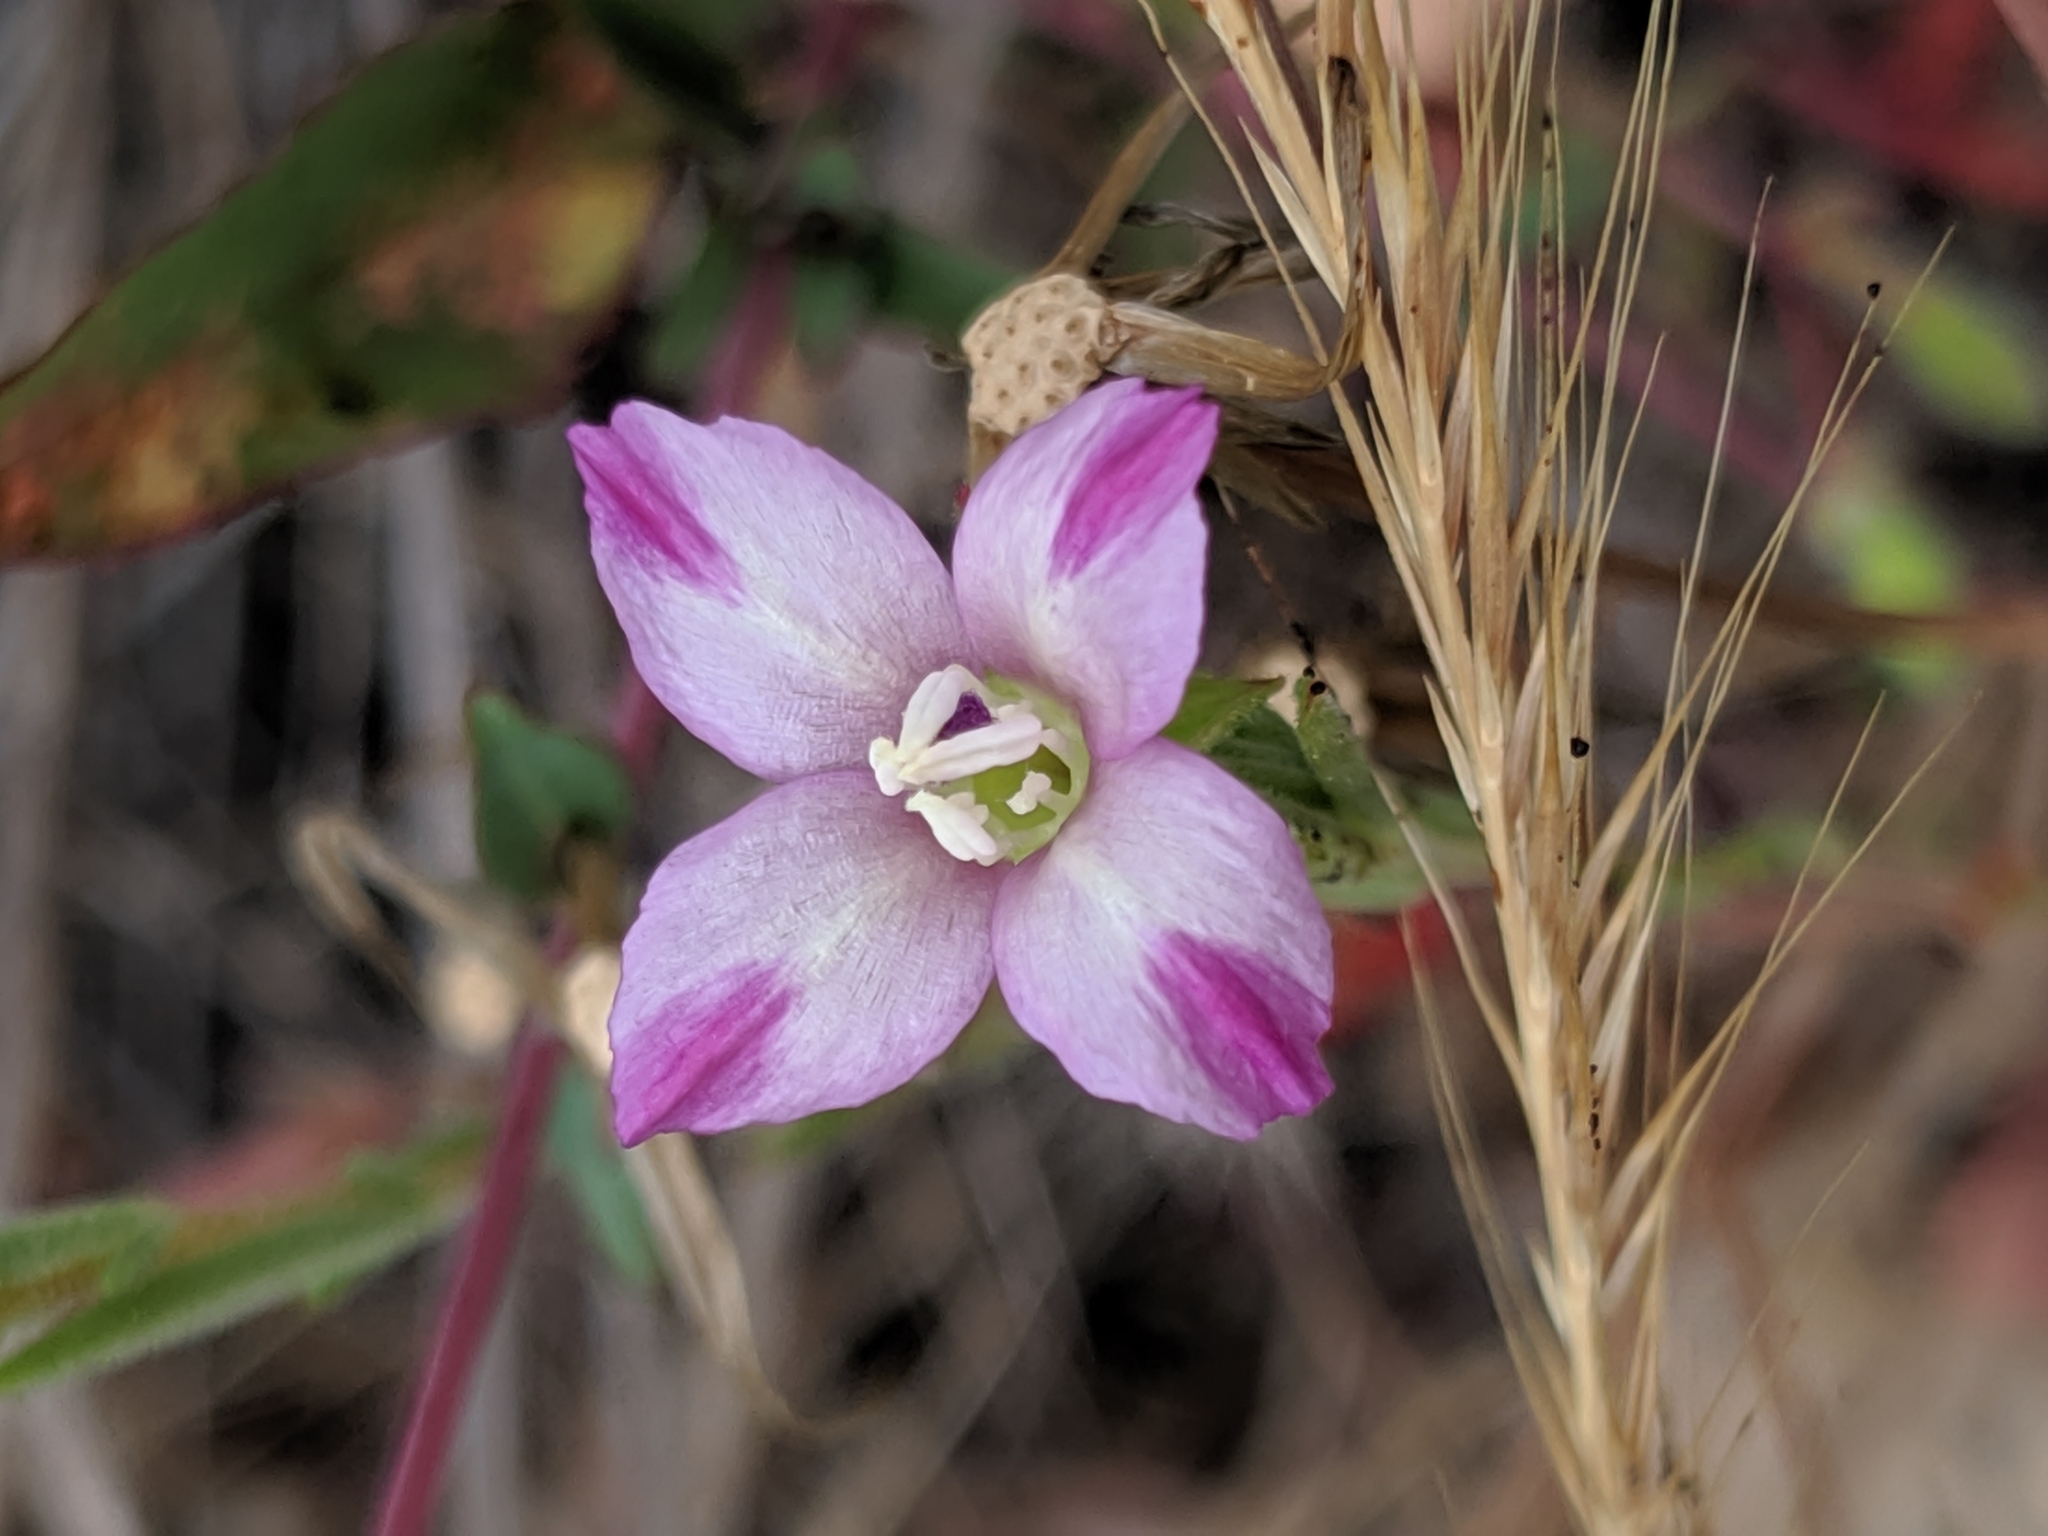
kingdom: Plantae
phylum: Tracheophyta
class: Magnoliopsida
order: Myrtales
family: Onagraceae
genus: Clarkia
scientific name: Clarkia purpurea
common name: Purple clarkia
